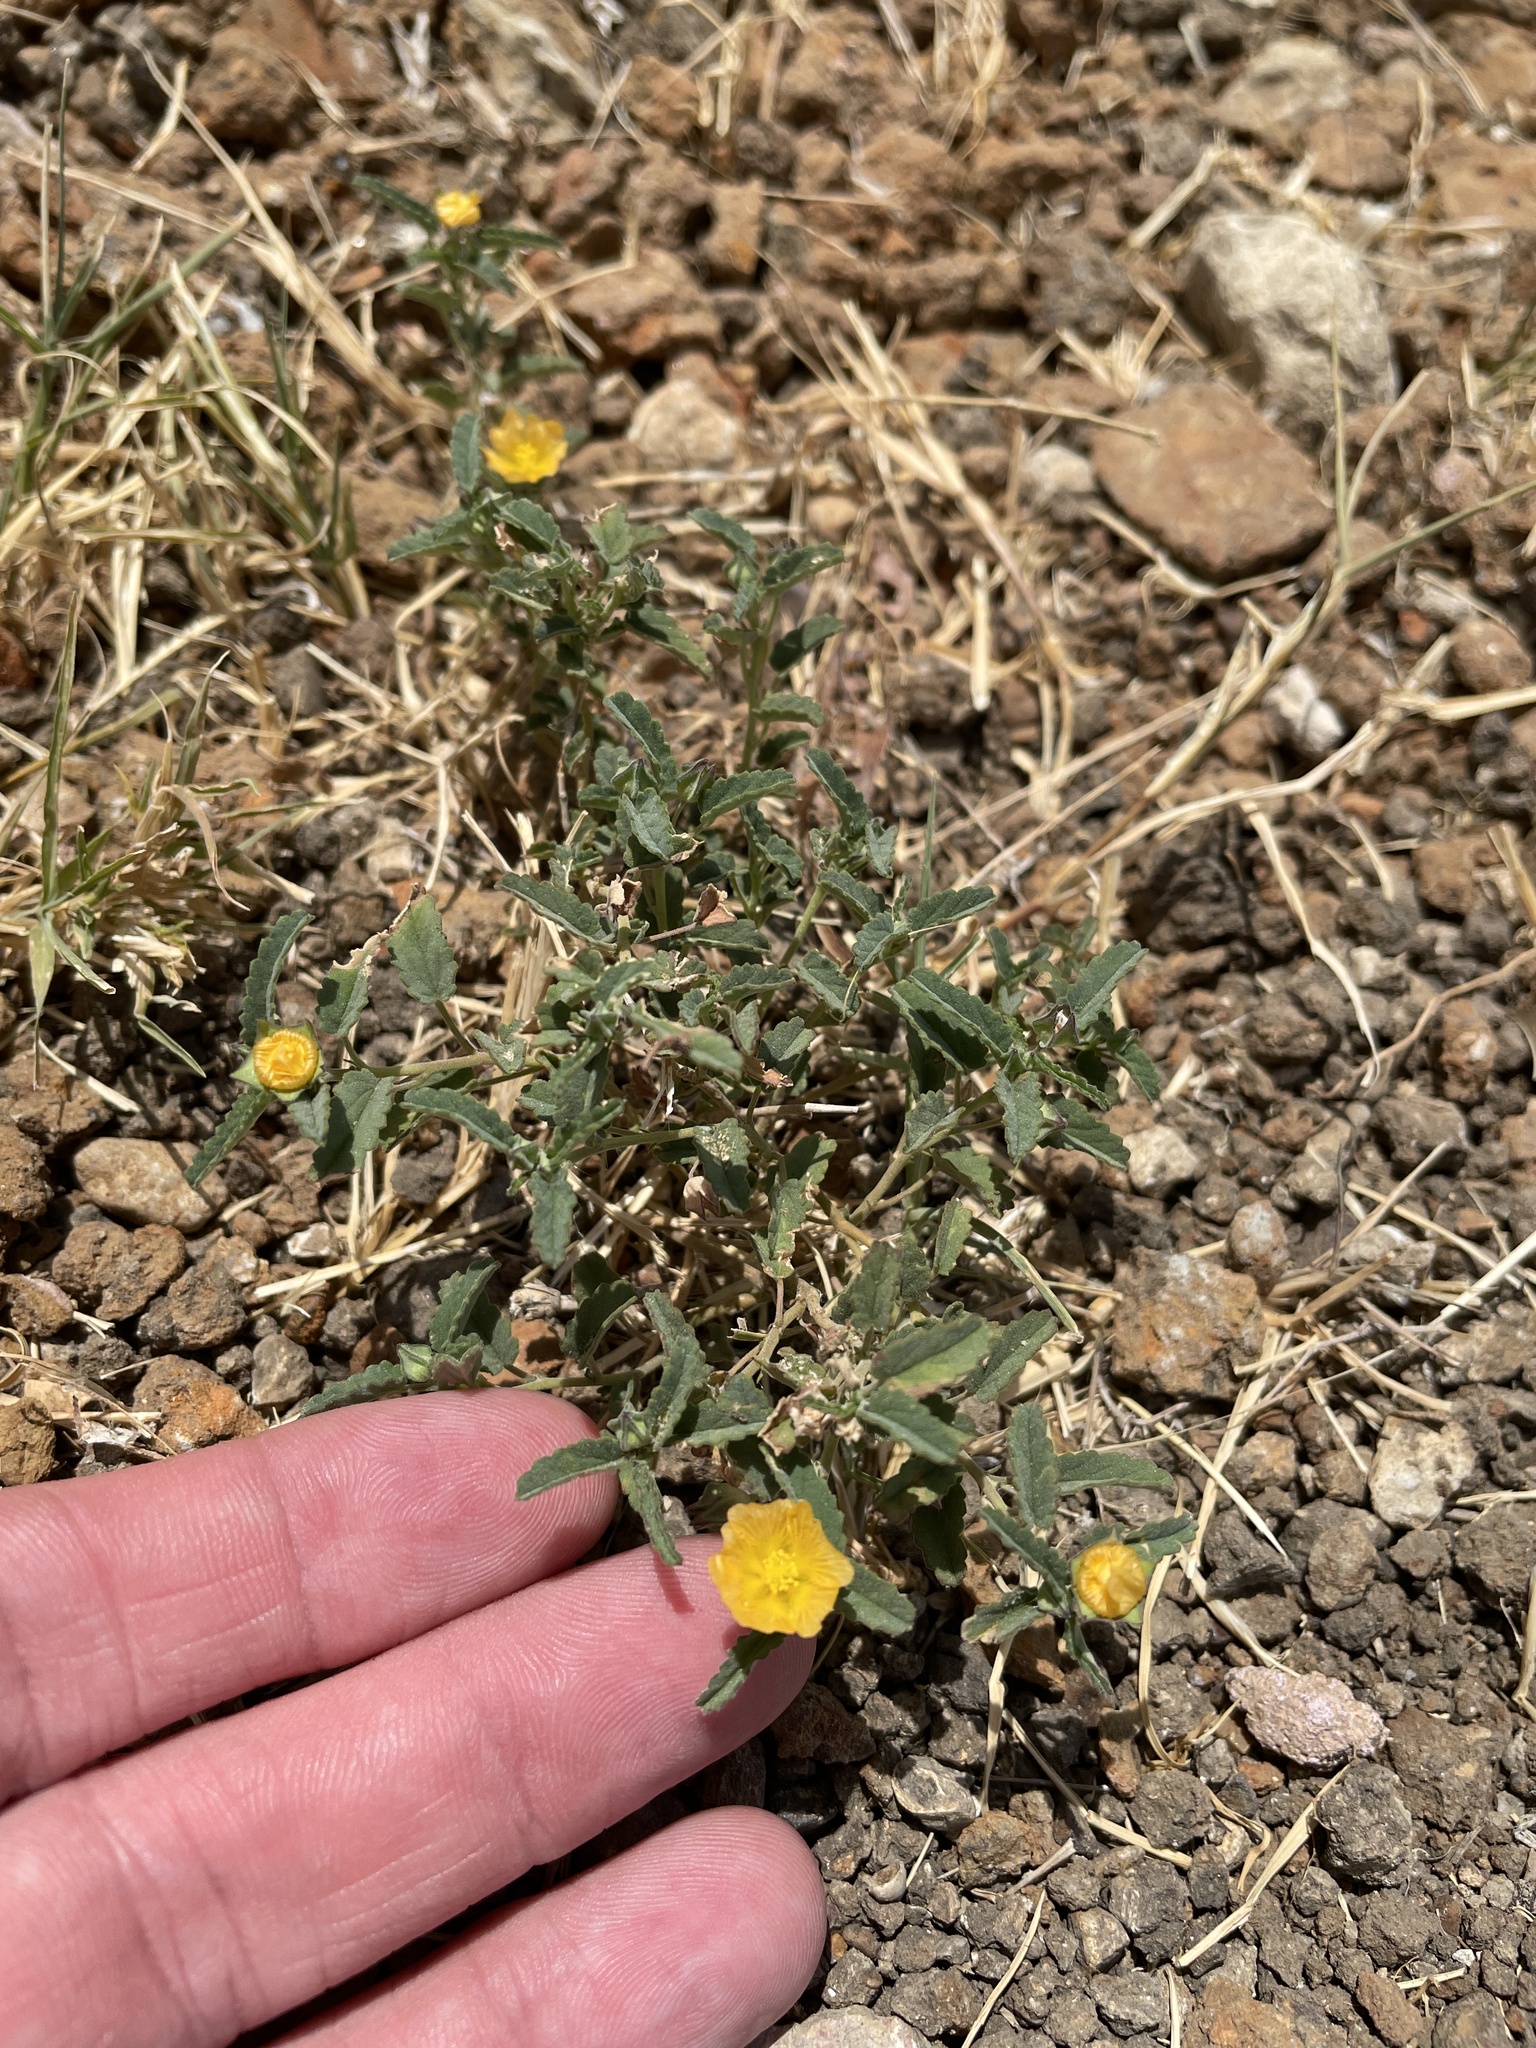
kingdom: Plantae
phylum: Tracheophyta
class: Magnoliopsida
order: Malvales
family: Malvaceae
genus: Sida
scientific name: Sida abutilifolia
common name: Spreading fanpetals
